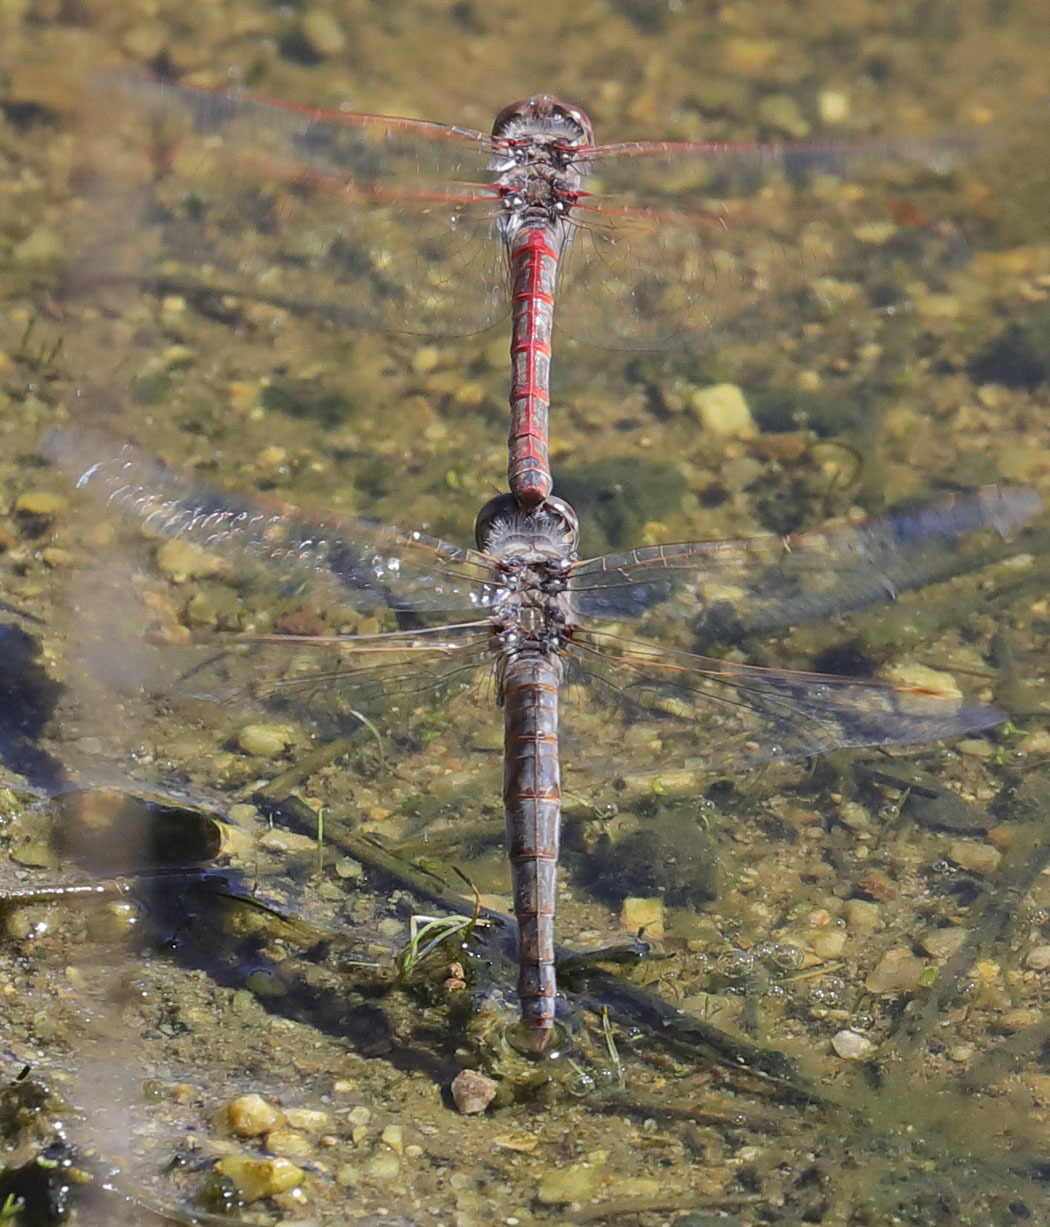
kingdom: Animalia
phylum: Arthropoda
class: Insecta
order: Odonata
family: Libellulidae
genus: Sympetrum
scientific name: Sympetrum corruptum
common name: Variegated meadowhawk
